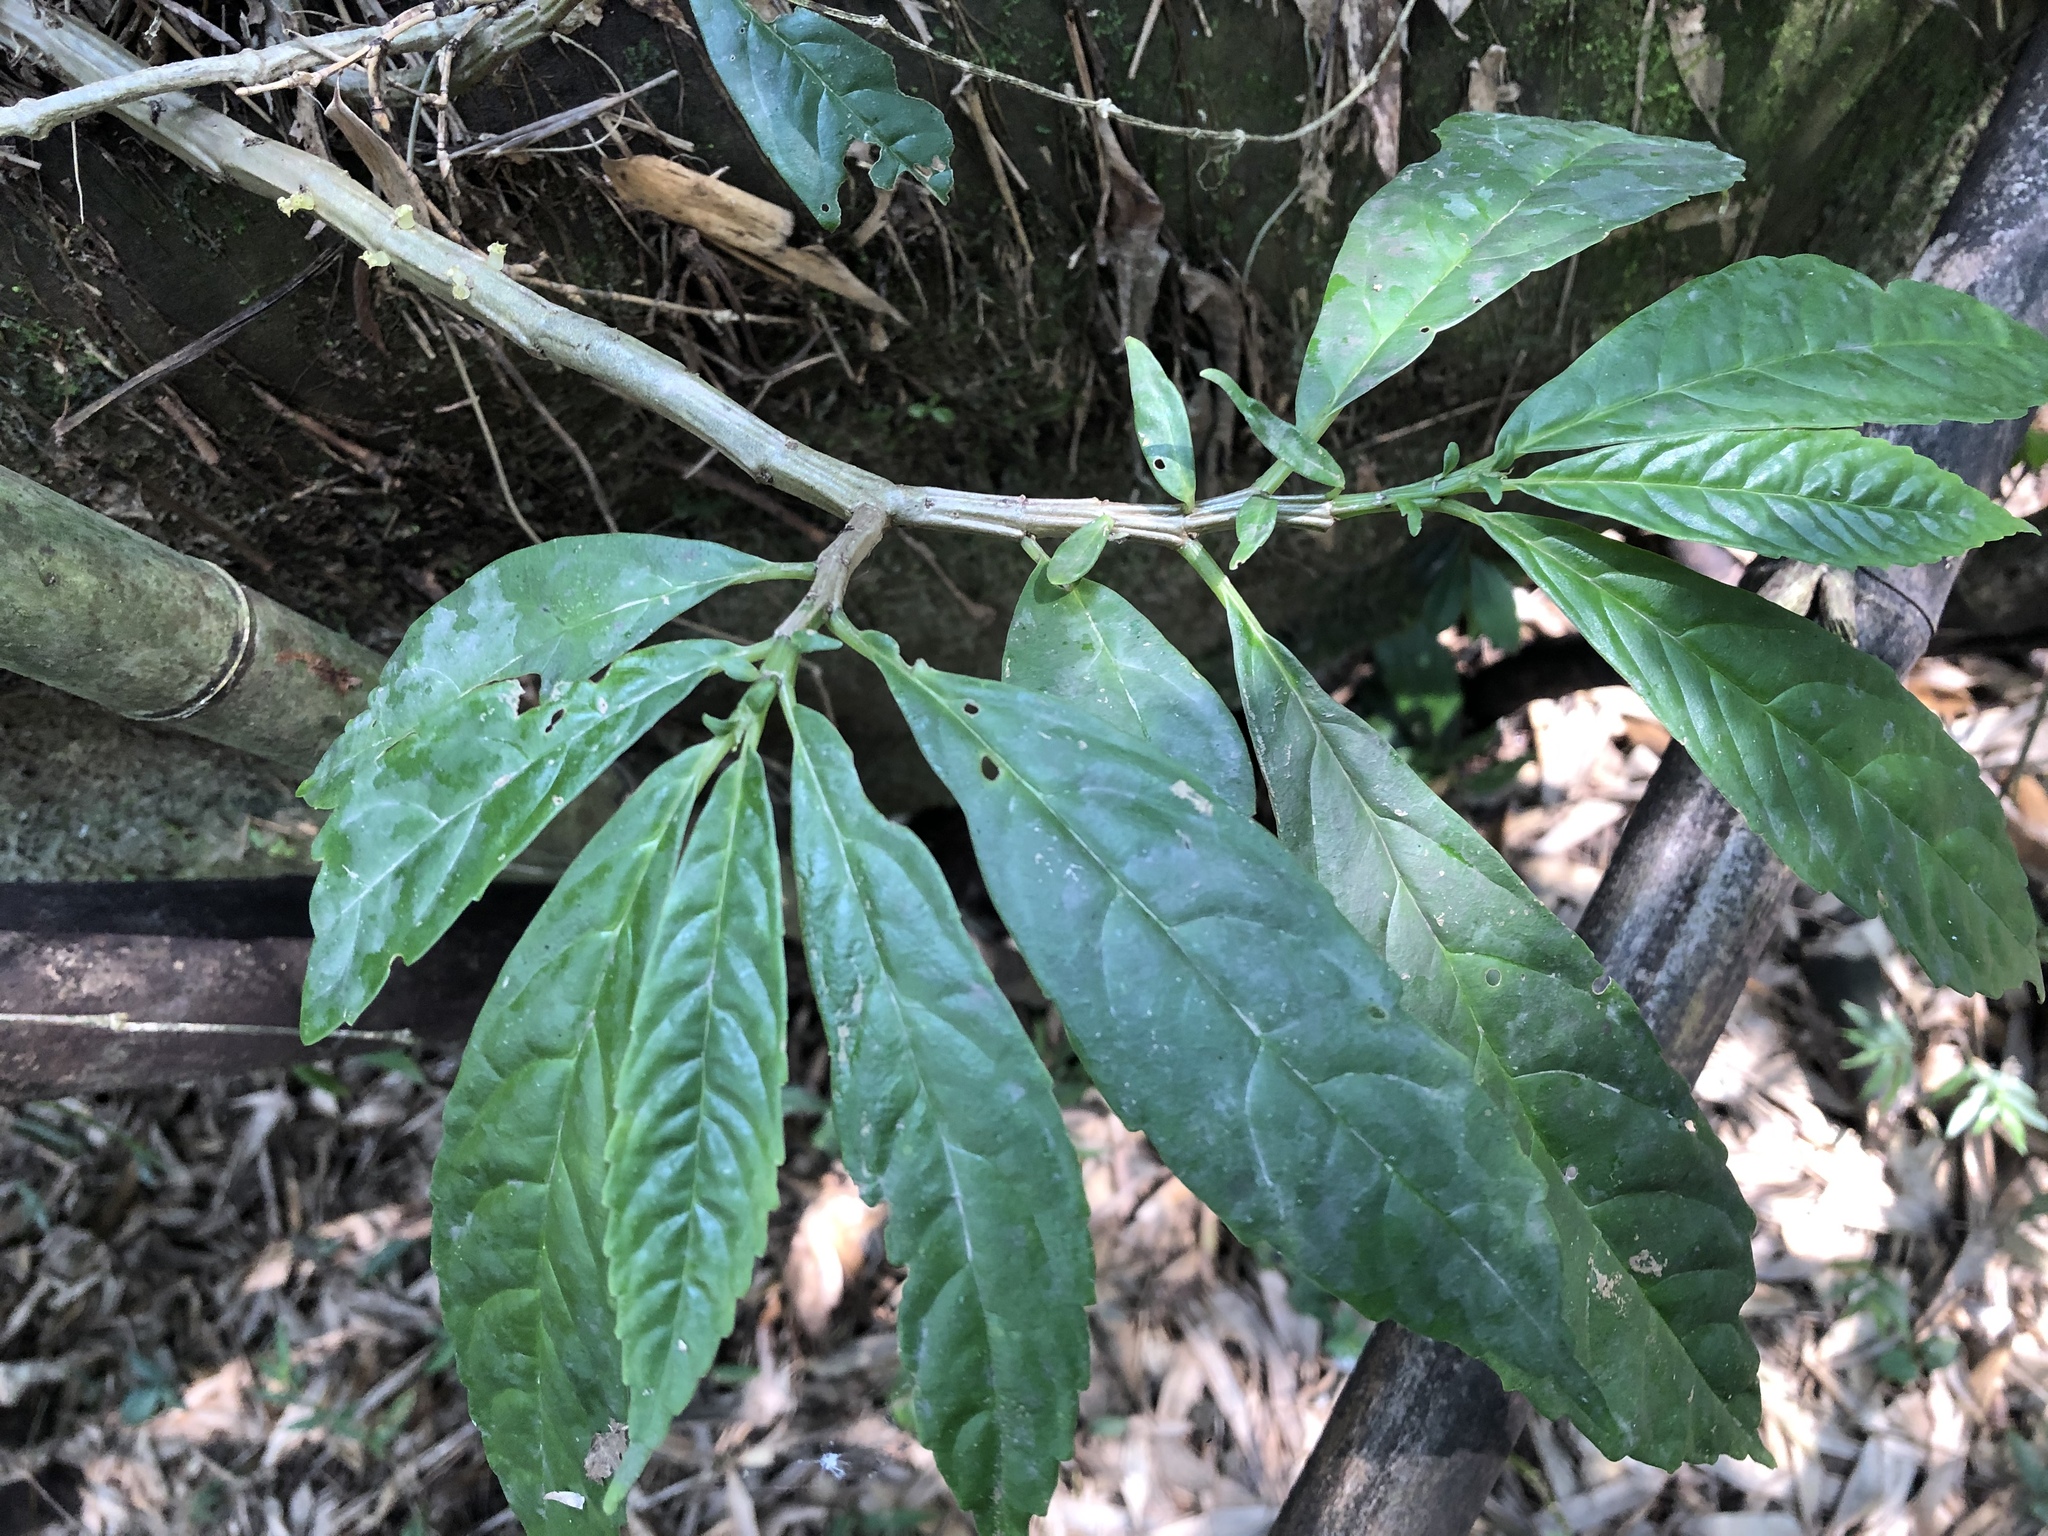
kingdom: Plantae
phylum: Tracheophyta
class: Magnoliopsida
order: Rosales
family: Urticaceae
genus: Procris
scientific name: Procris
